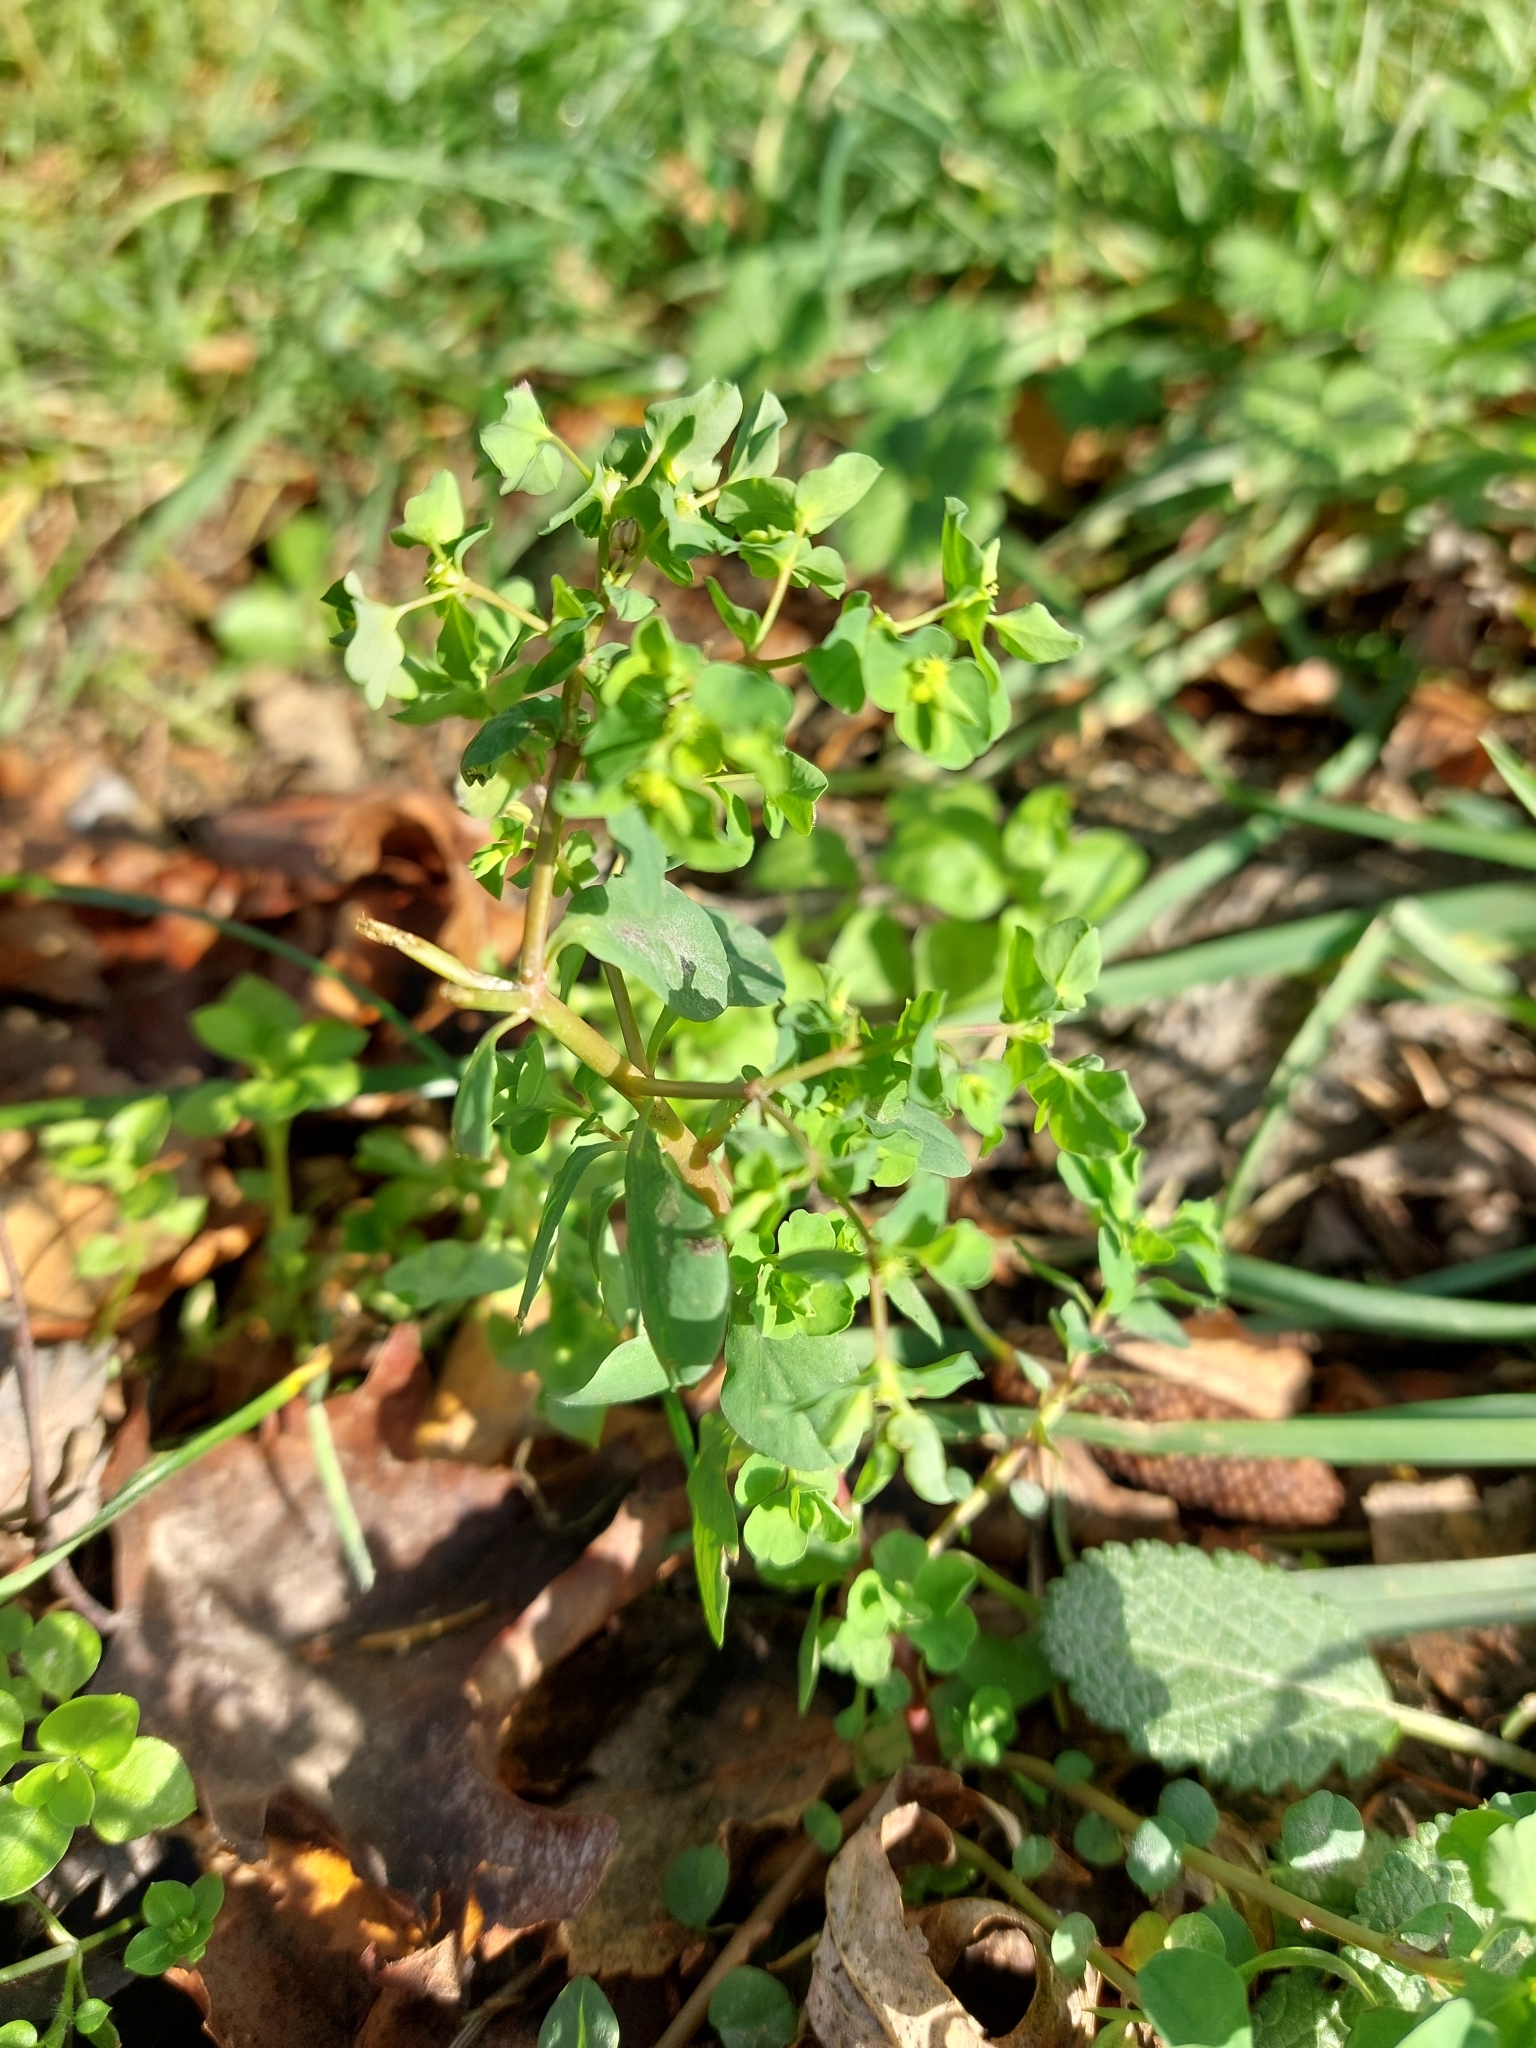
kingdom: Plantae
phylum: Tracheophyta
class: Magnoliopsida
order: Malpighiales
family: Euphorbiaceae
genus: Euphorbia
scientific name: Euphorbia peplus
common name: Petty spurge
